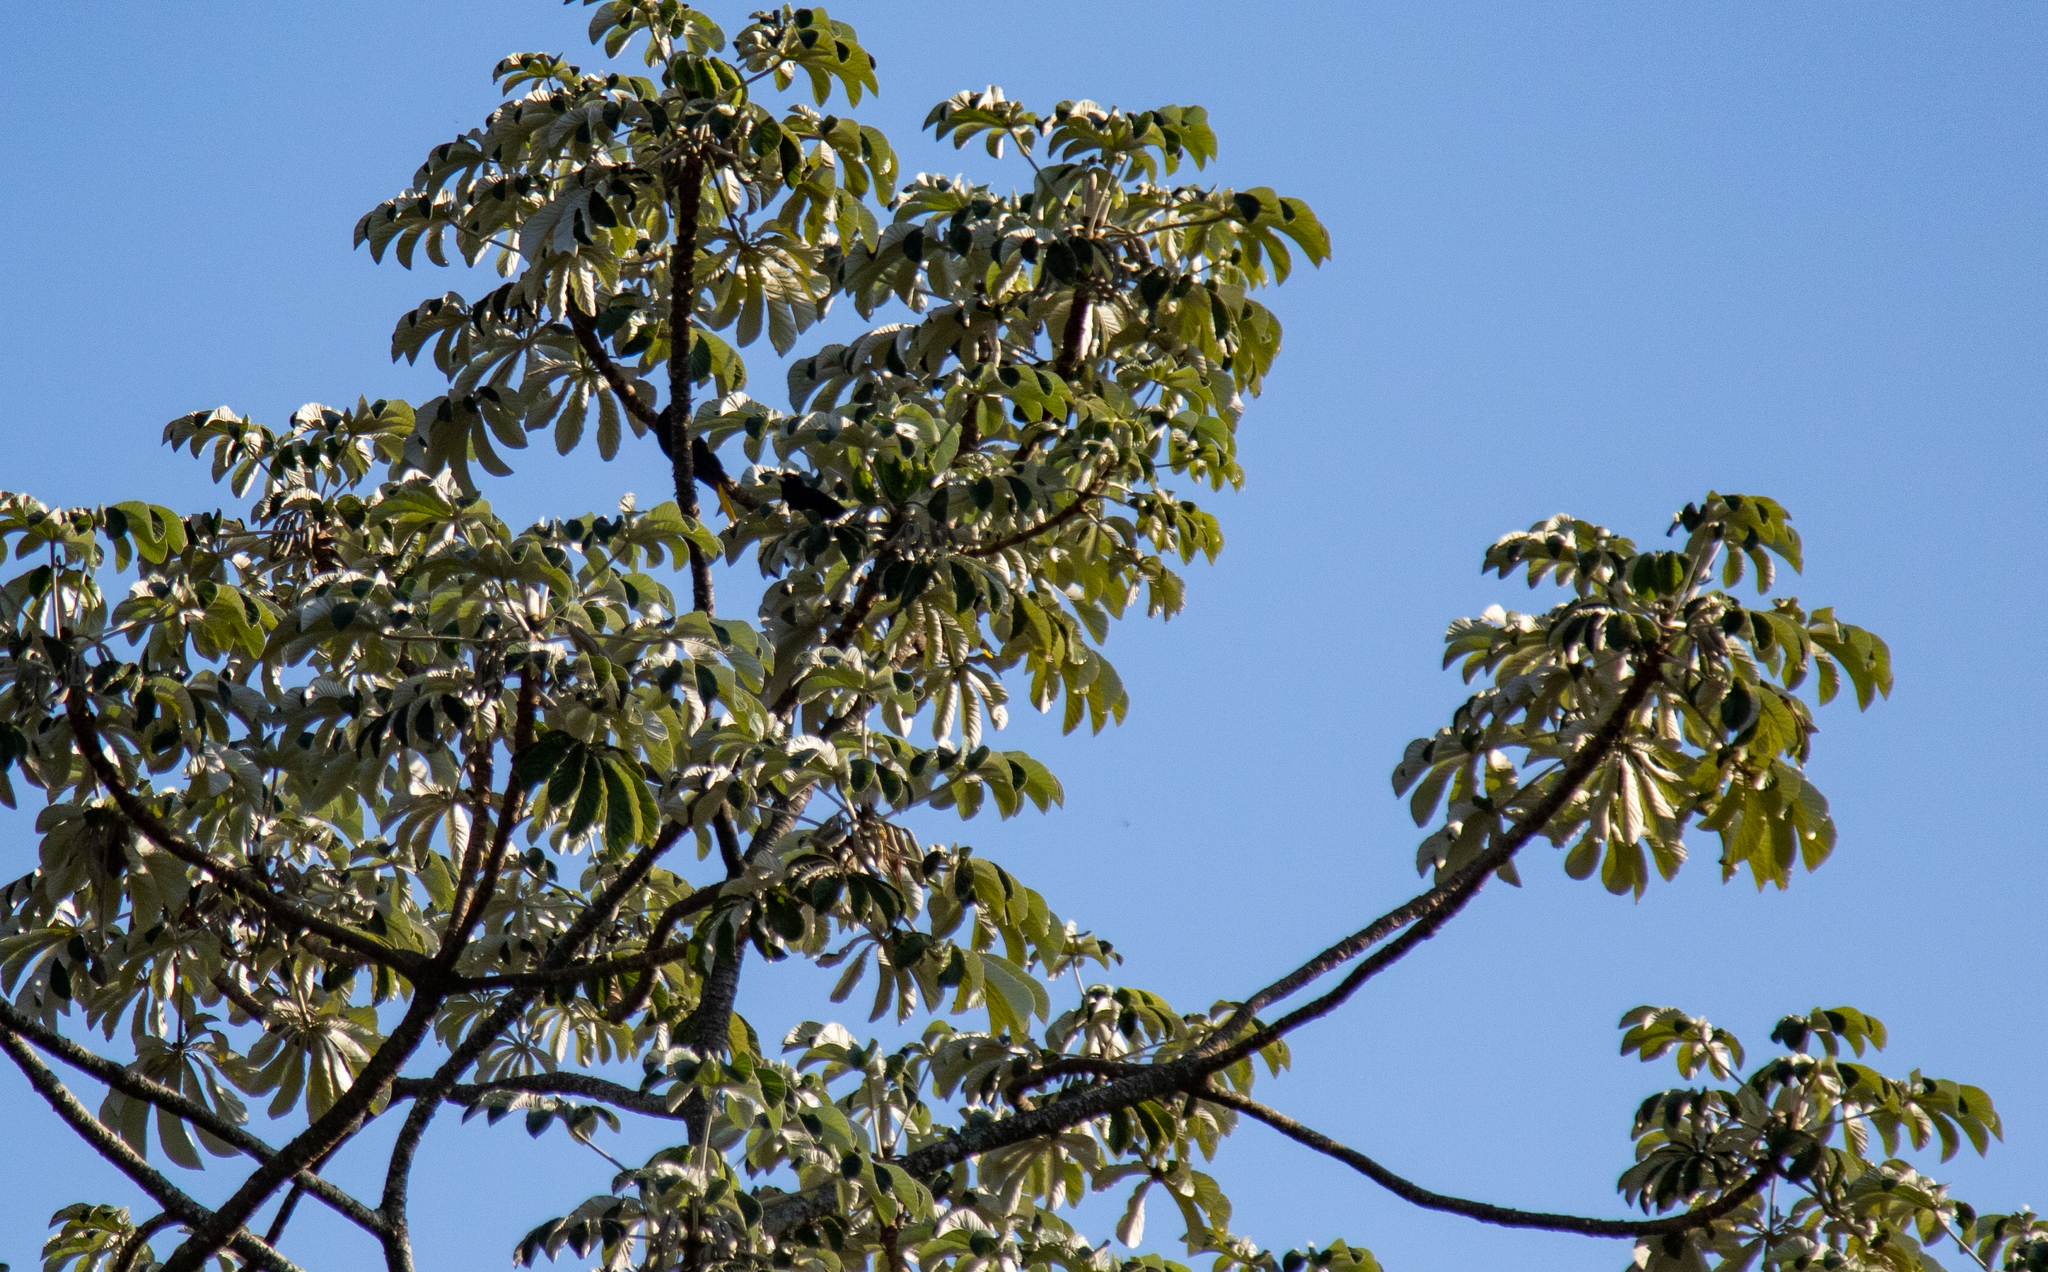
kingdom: Animalia
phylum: Chordata
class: Aves
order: Passeriformes
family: Icteridae
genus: Psarocolius
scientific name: Psarocolius decumanus
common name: Crested oropendola
